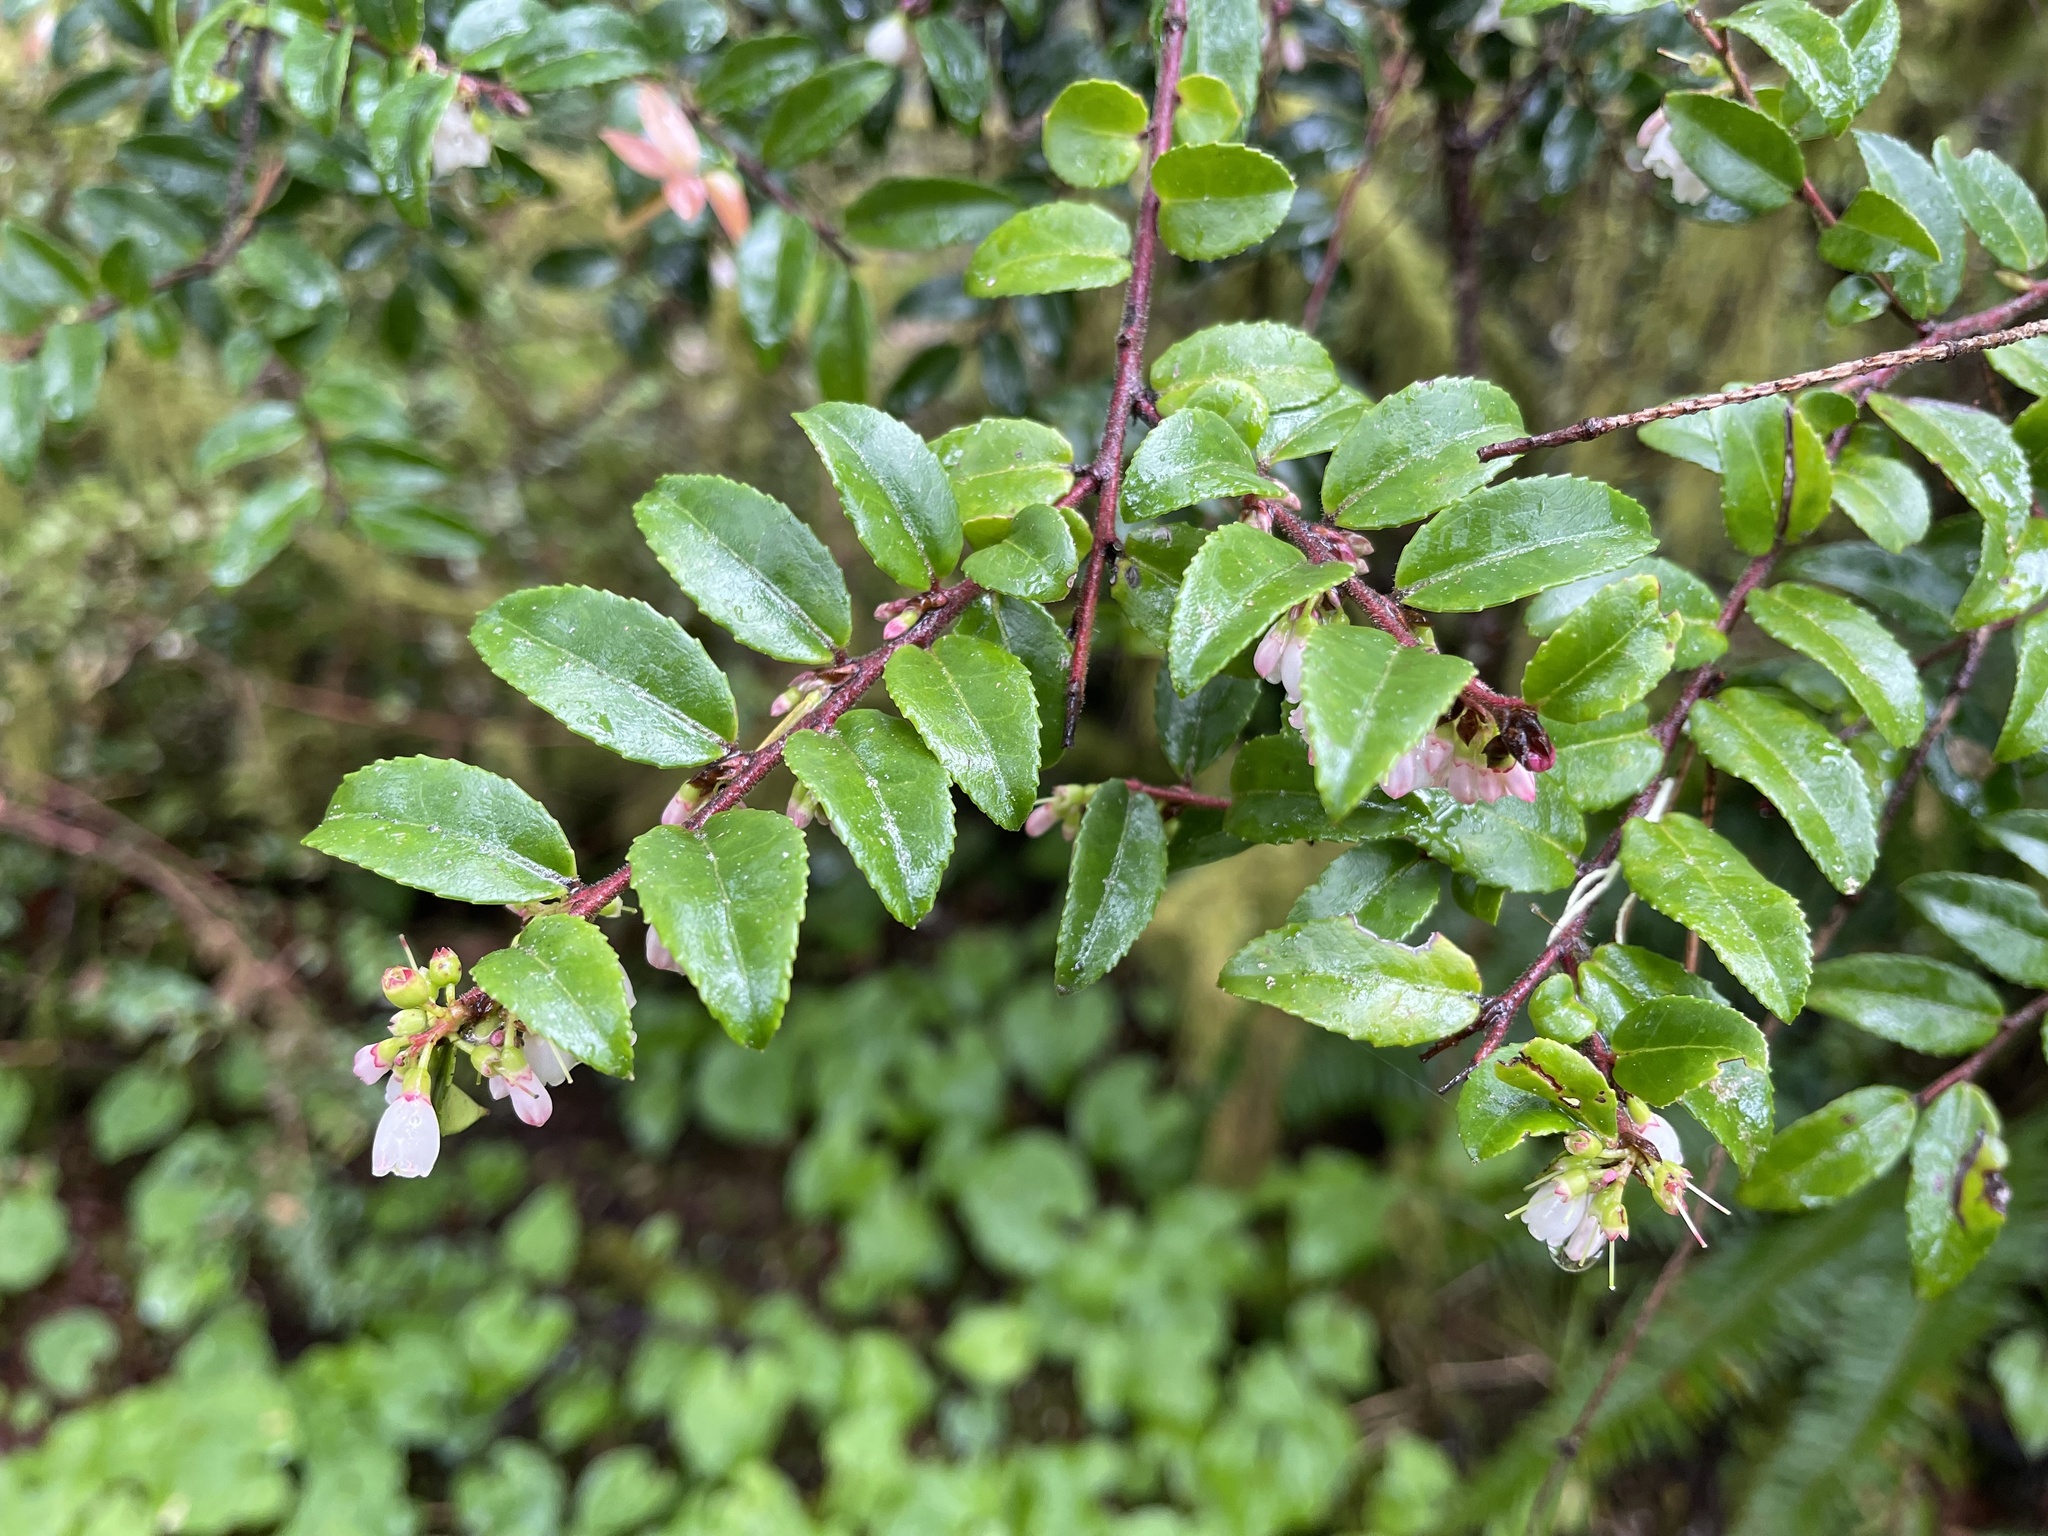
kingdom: Plantae
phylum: Tracheophyta
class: Magnoliopsida
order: Ericales
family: Ericaceae
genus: Vaccinium
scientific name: Vaccinium ovatum
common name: California-huckleberry
